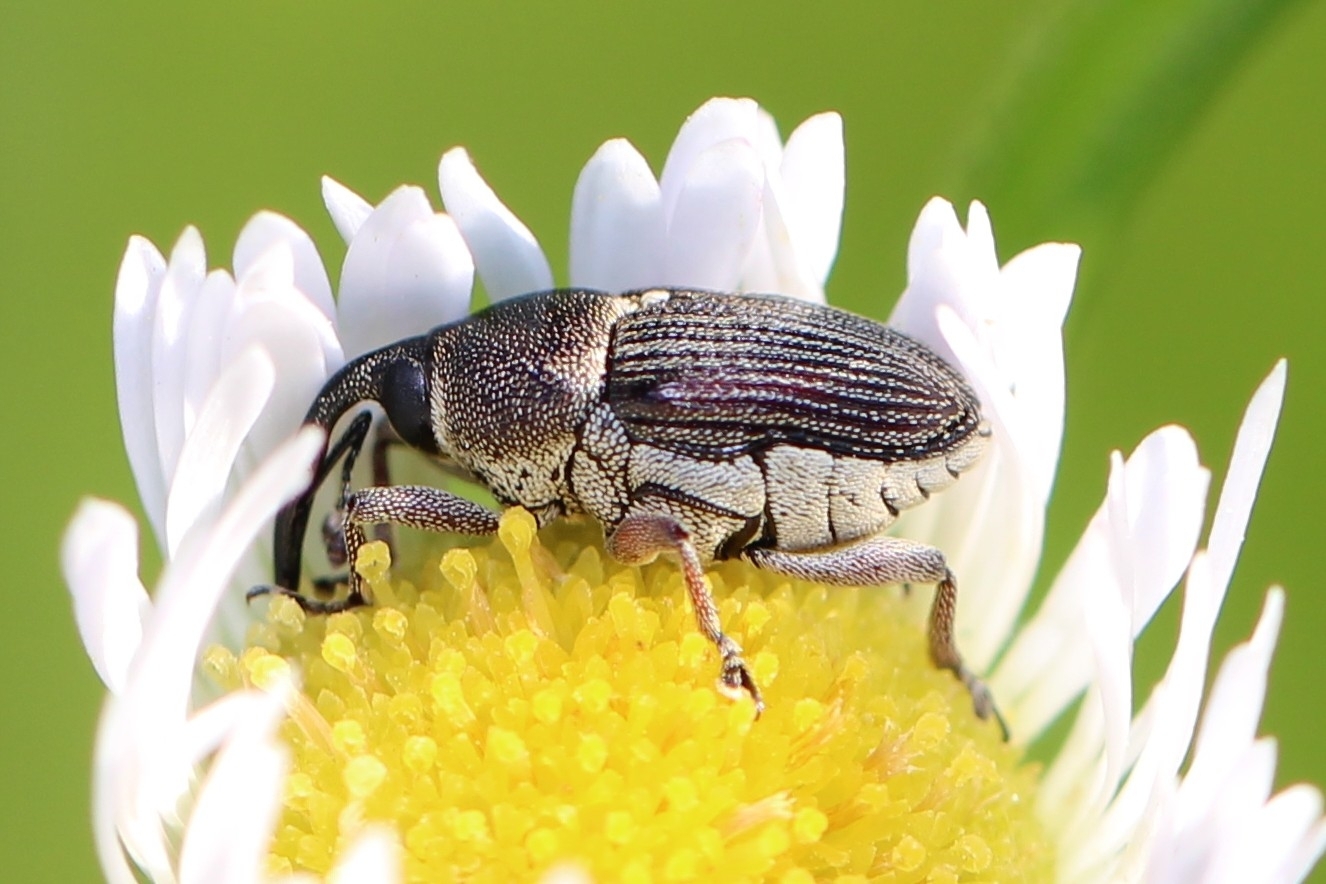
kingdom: Animalia
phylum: Arthropoda
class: Insecta
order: Coleoptera
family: Curculionidae
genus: Odontocorynus
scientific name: Odontocorynus umbellae
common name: Daisy flower weevil
